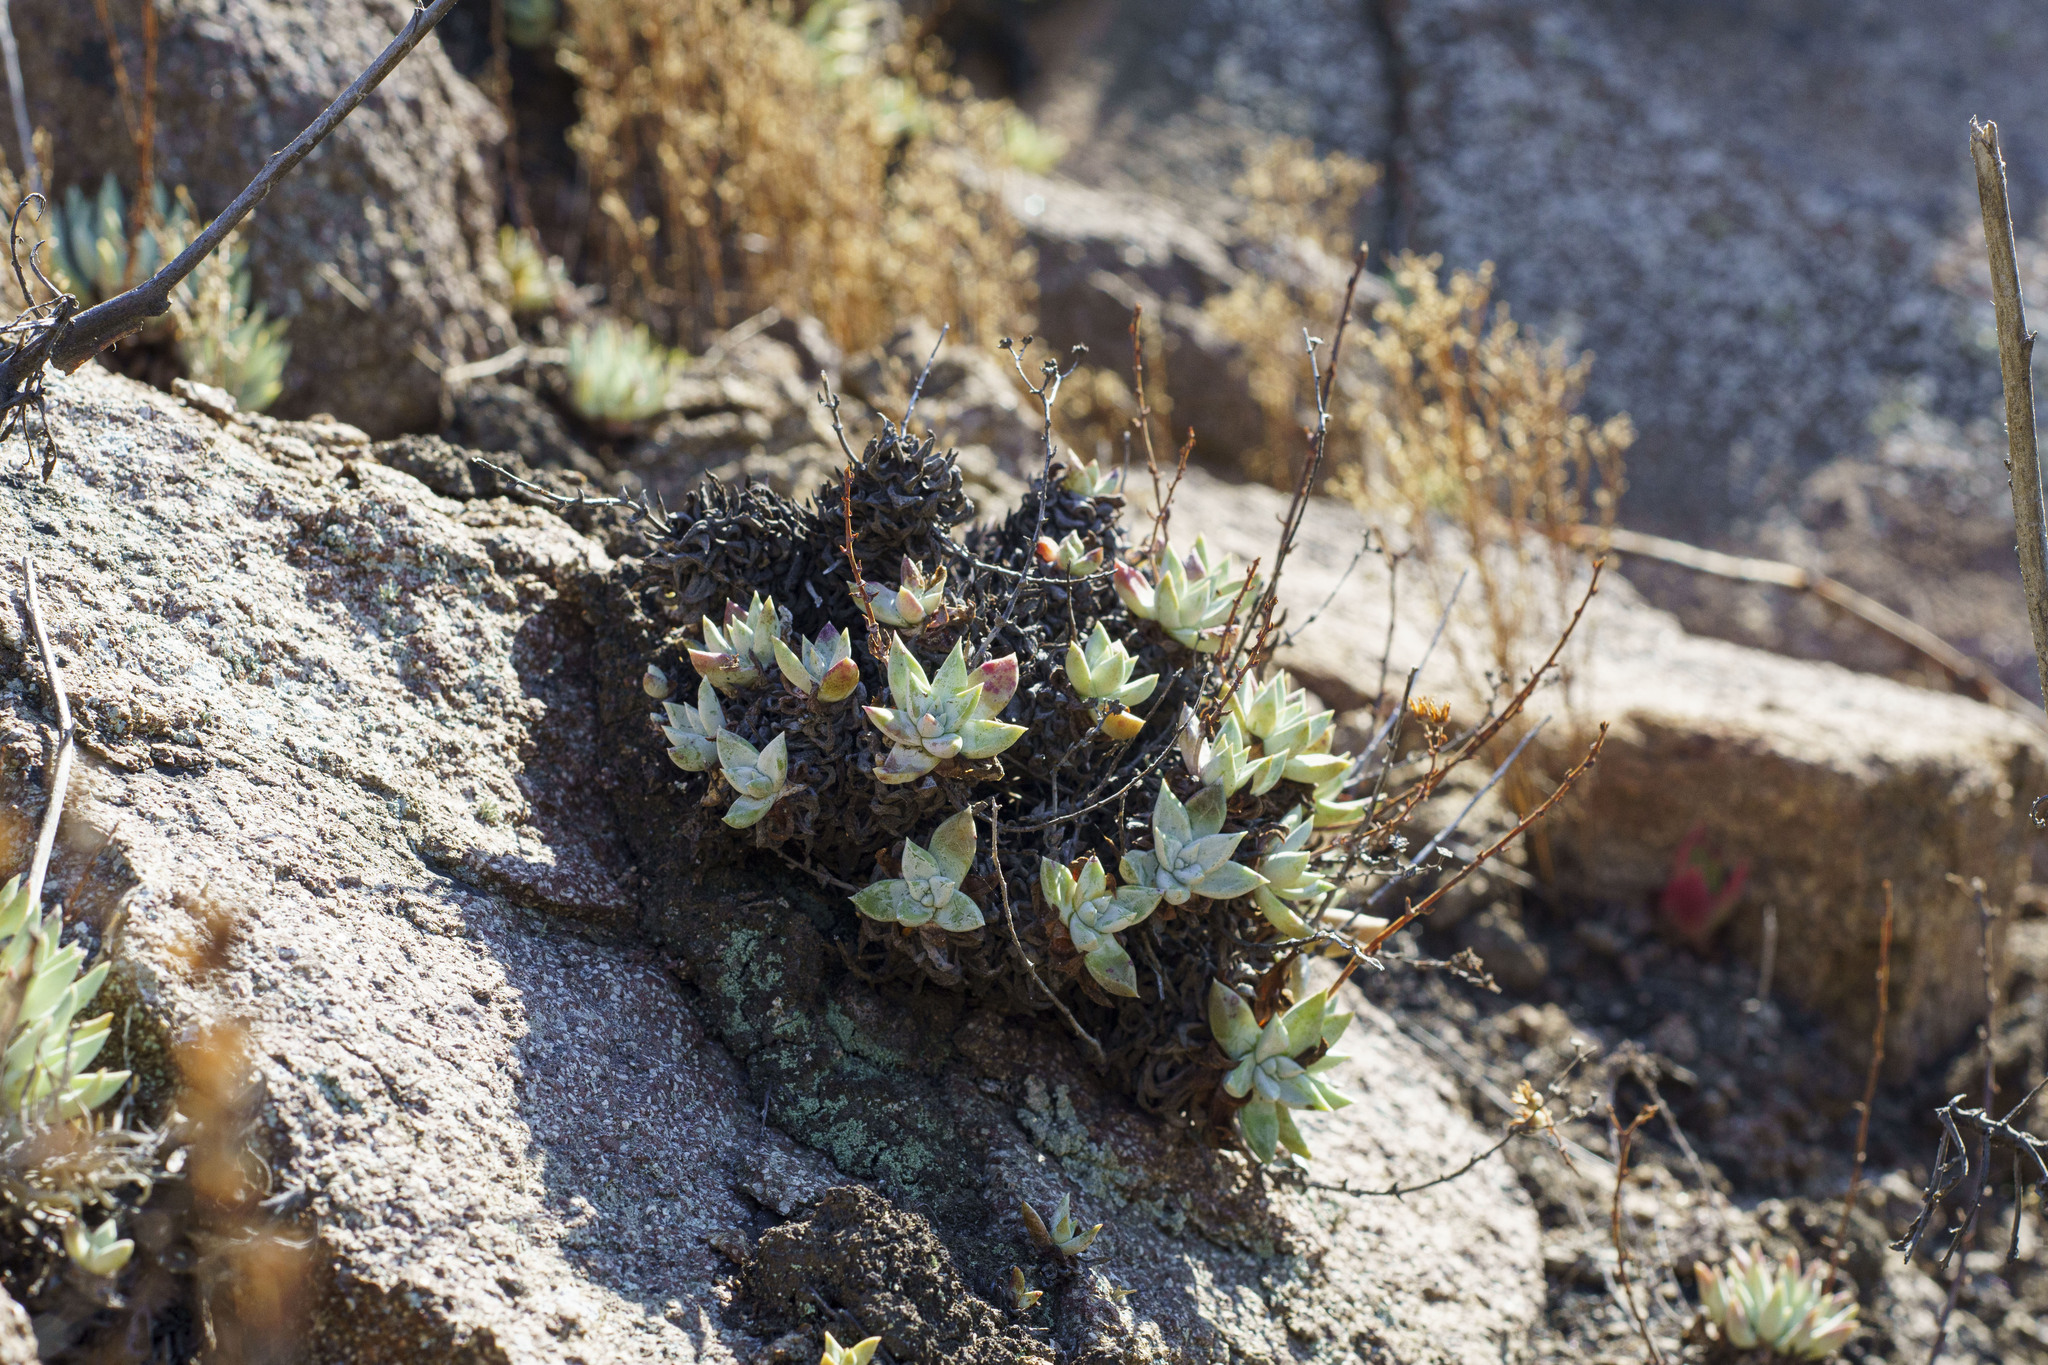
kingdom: Plantae
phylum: Tracheophyta
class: Magnoliopsida
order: Saxifragales
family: Crassulaceae
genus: Dudleya
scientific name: Dudleya campanulata
